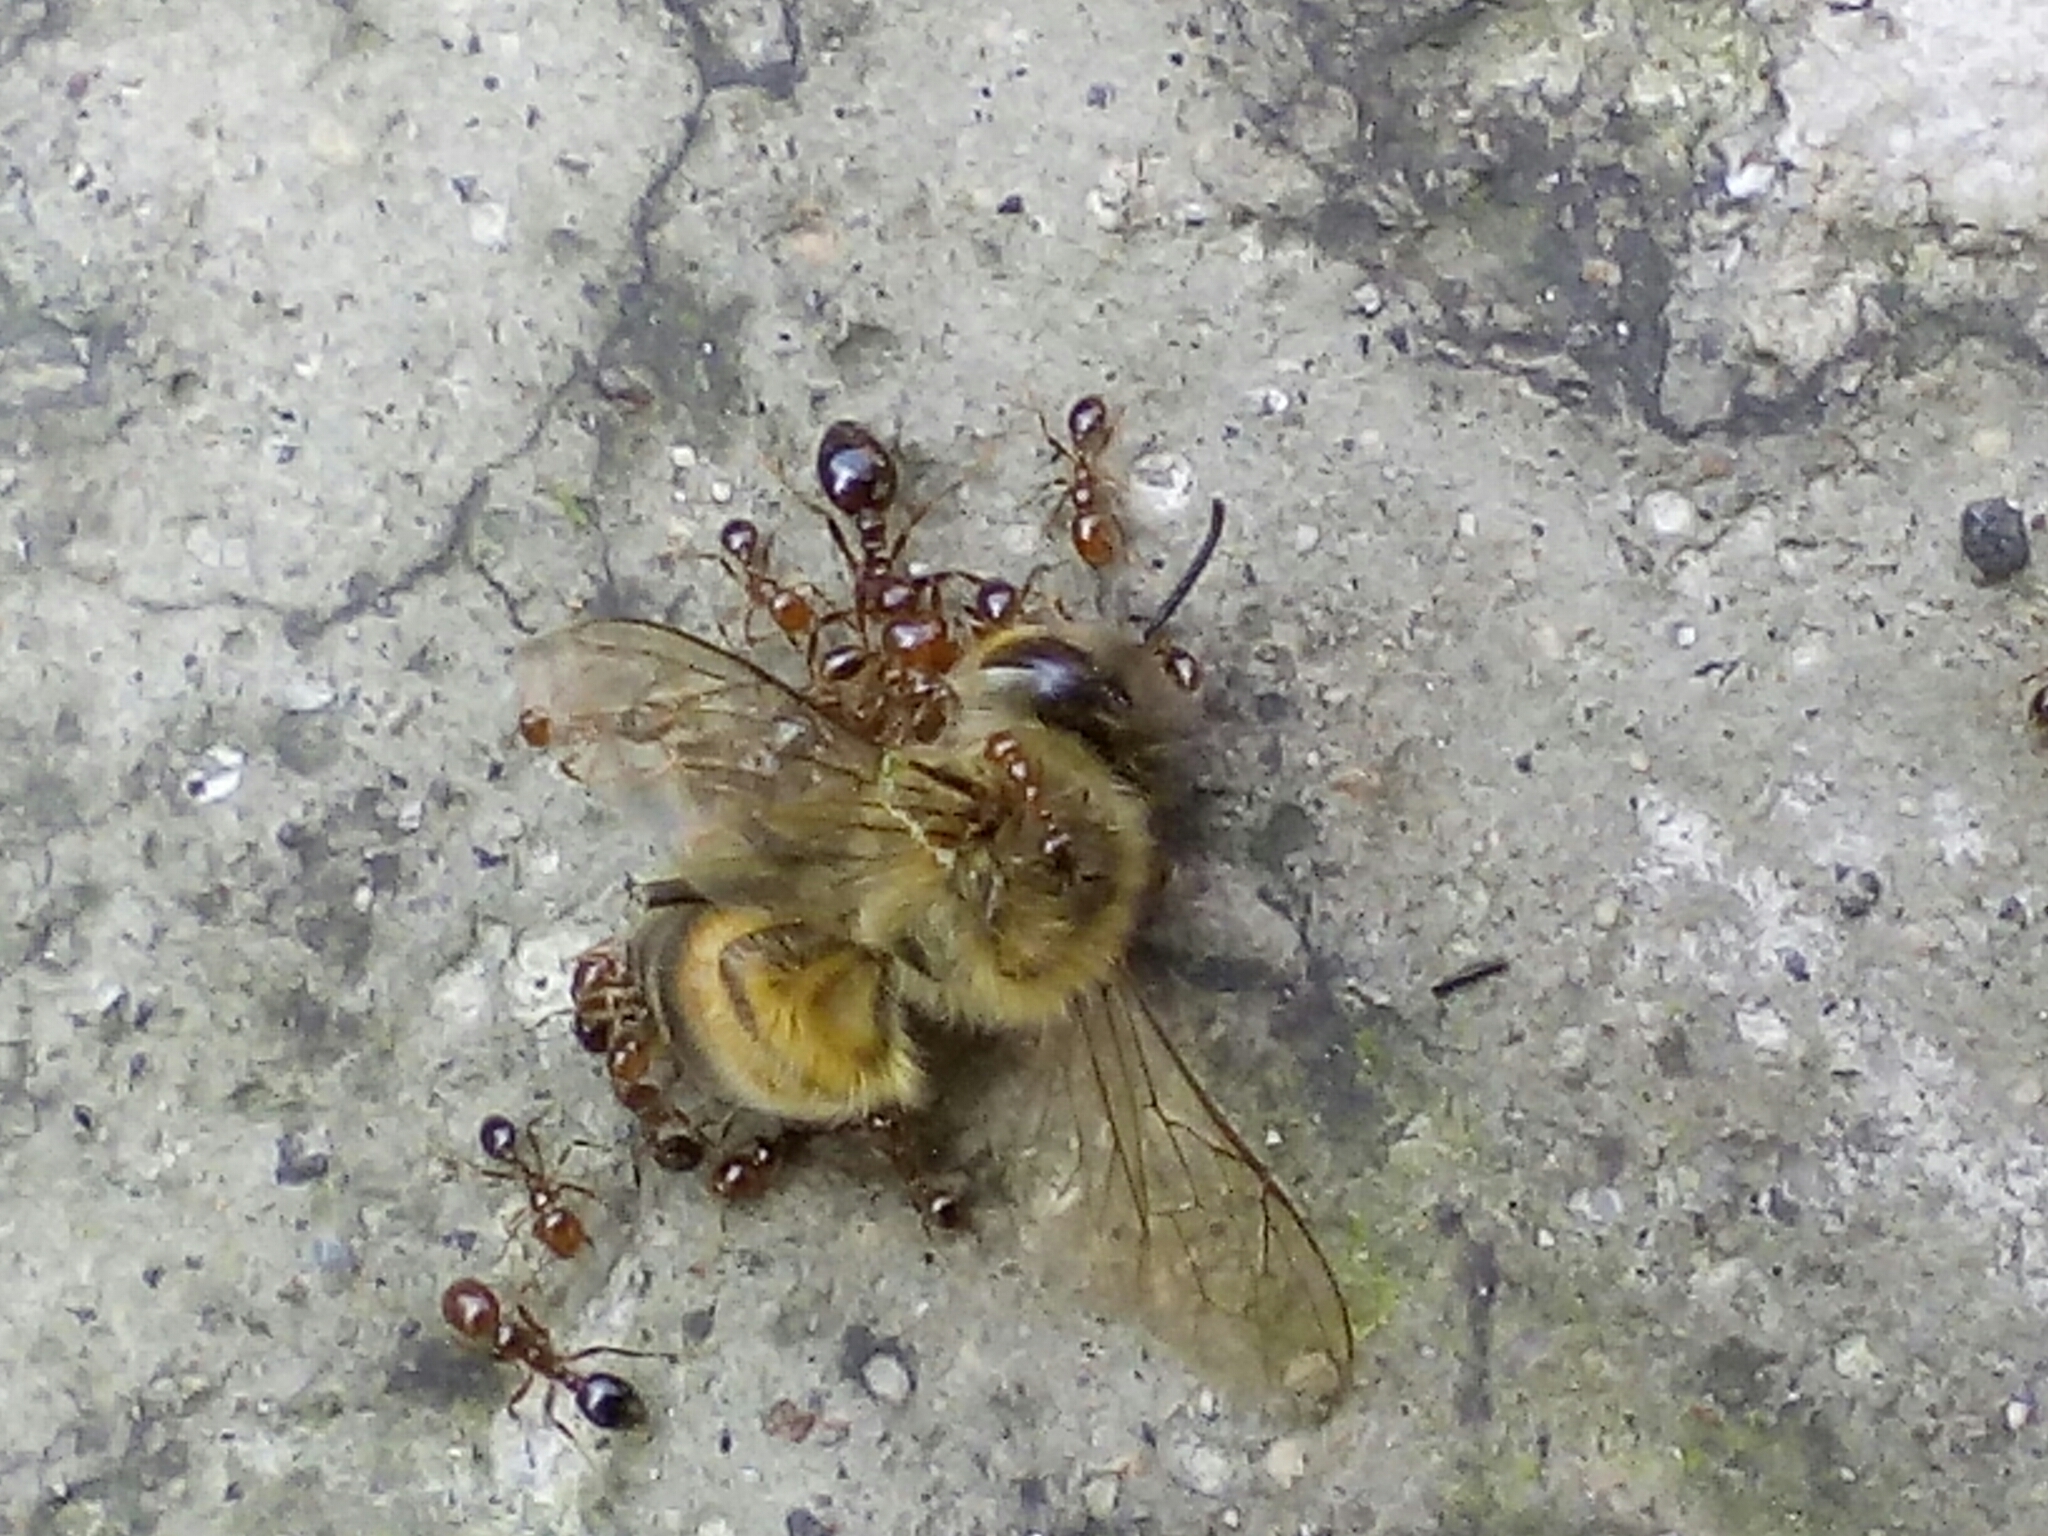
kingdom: Animalia
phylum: Arthropoda
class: Insecta
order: Hymenoptera
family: Formicidae
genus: Solenopsis
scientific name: Solenopsis geminata
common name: Tropical fire ant
